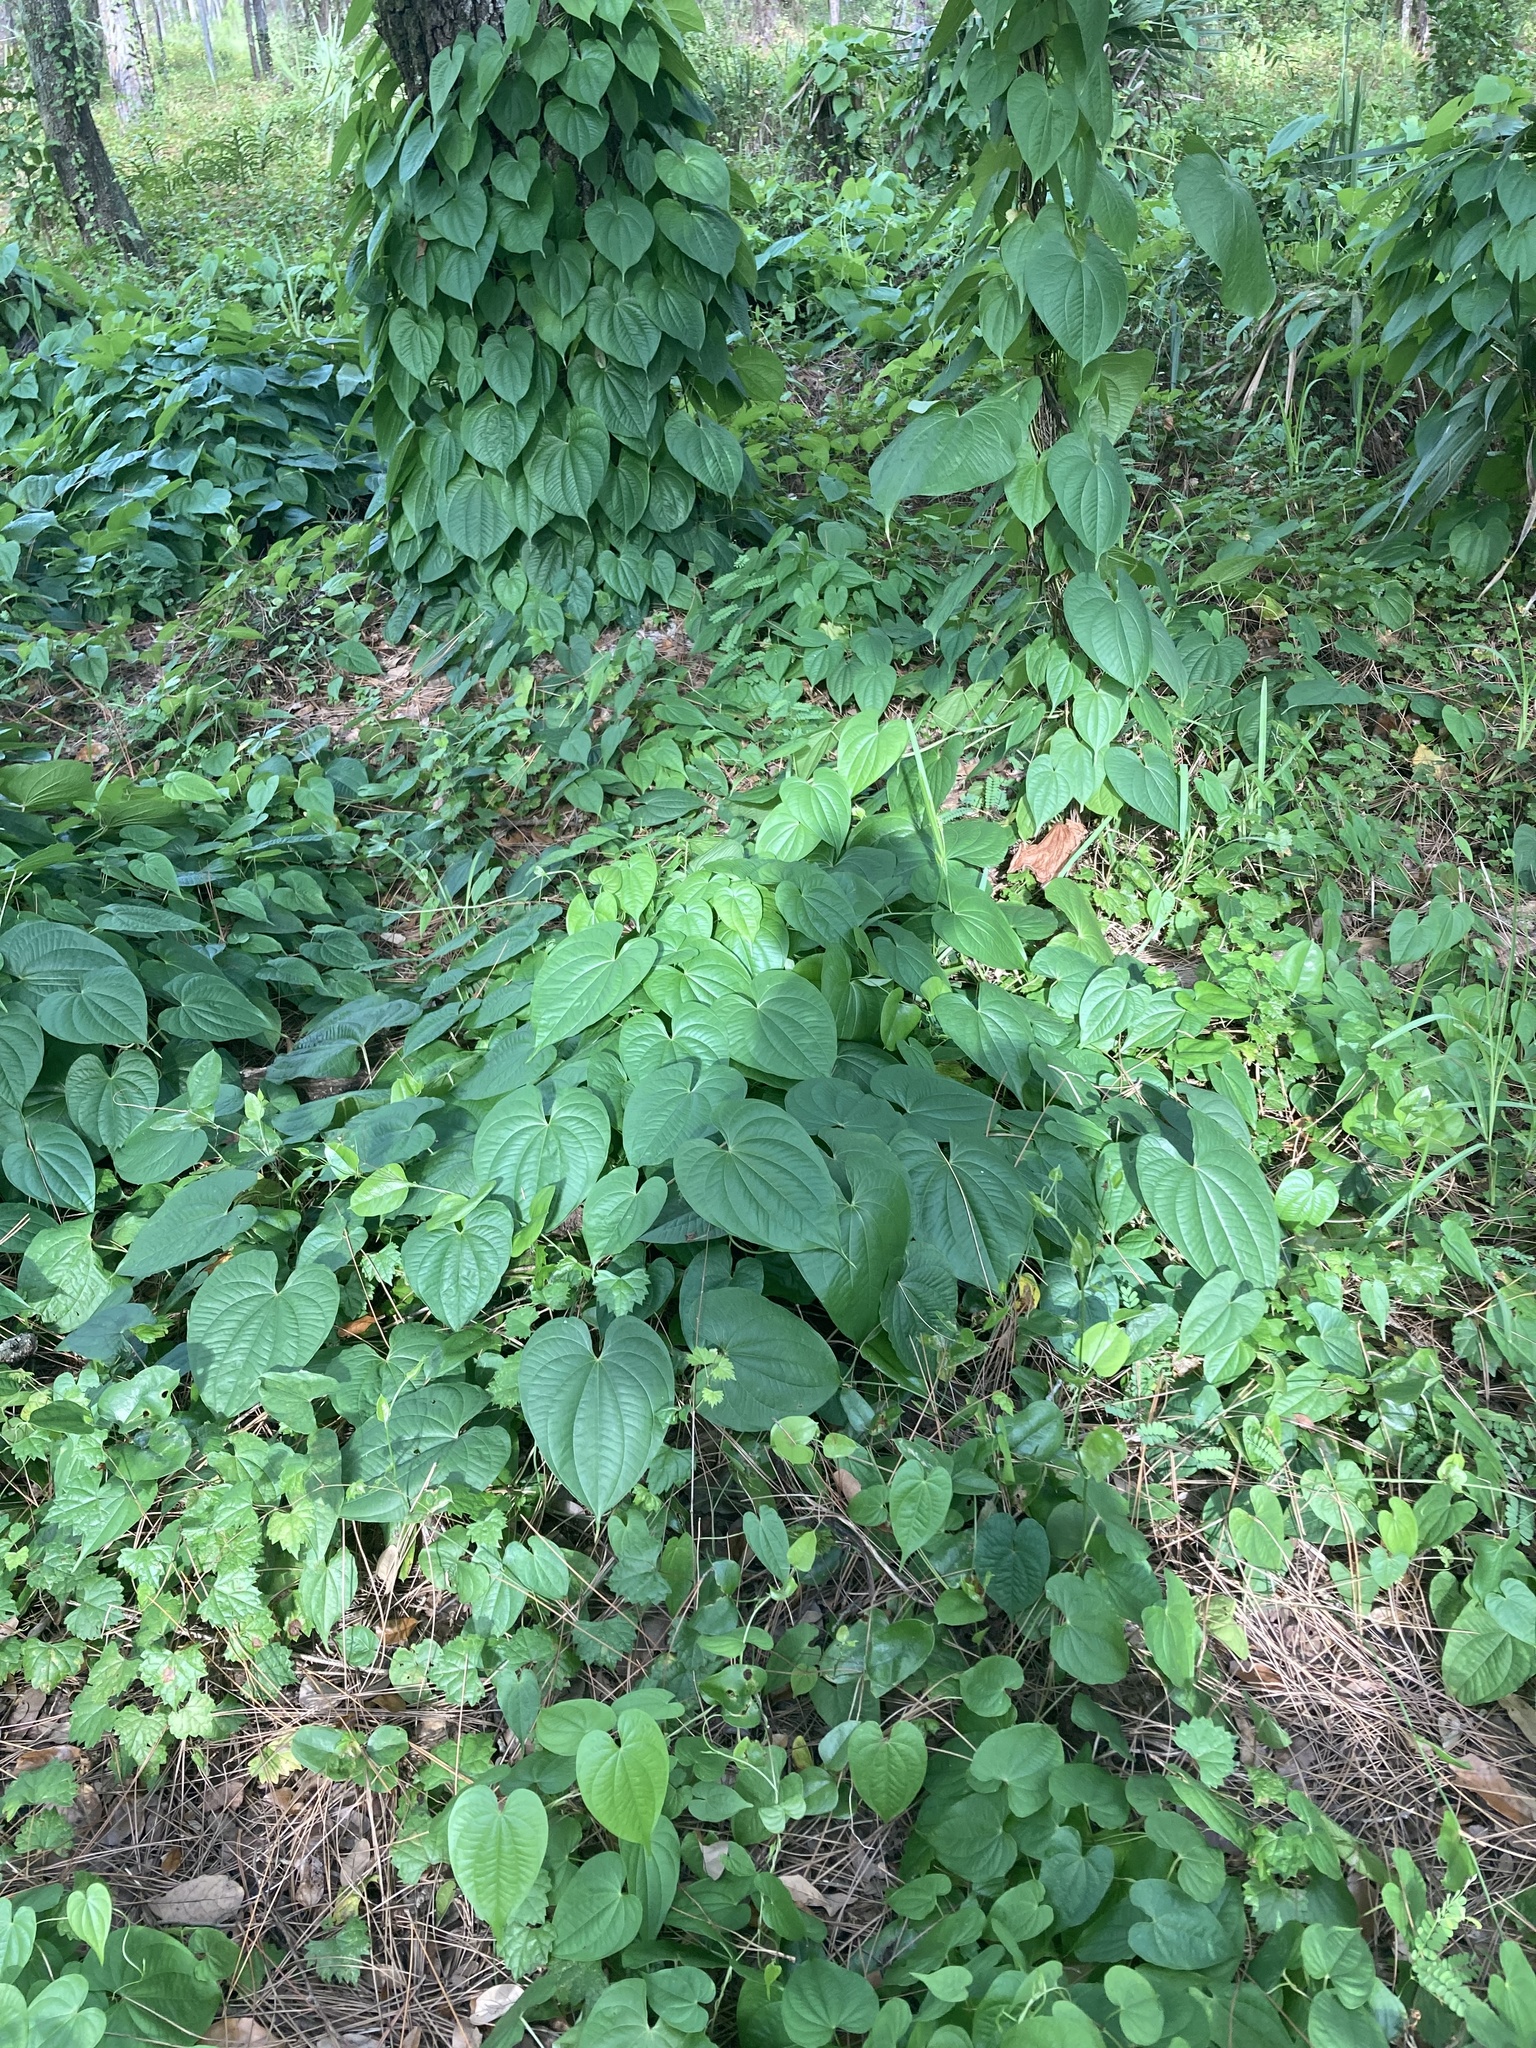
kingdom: Plantae
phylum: Tracheophyta
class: Liliopsida
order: Dioscoreales
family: Dioscoreaceae
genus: Dioscorea
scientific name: Dioscorea bulbifera
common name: Air yam
